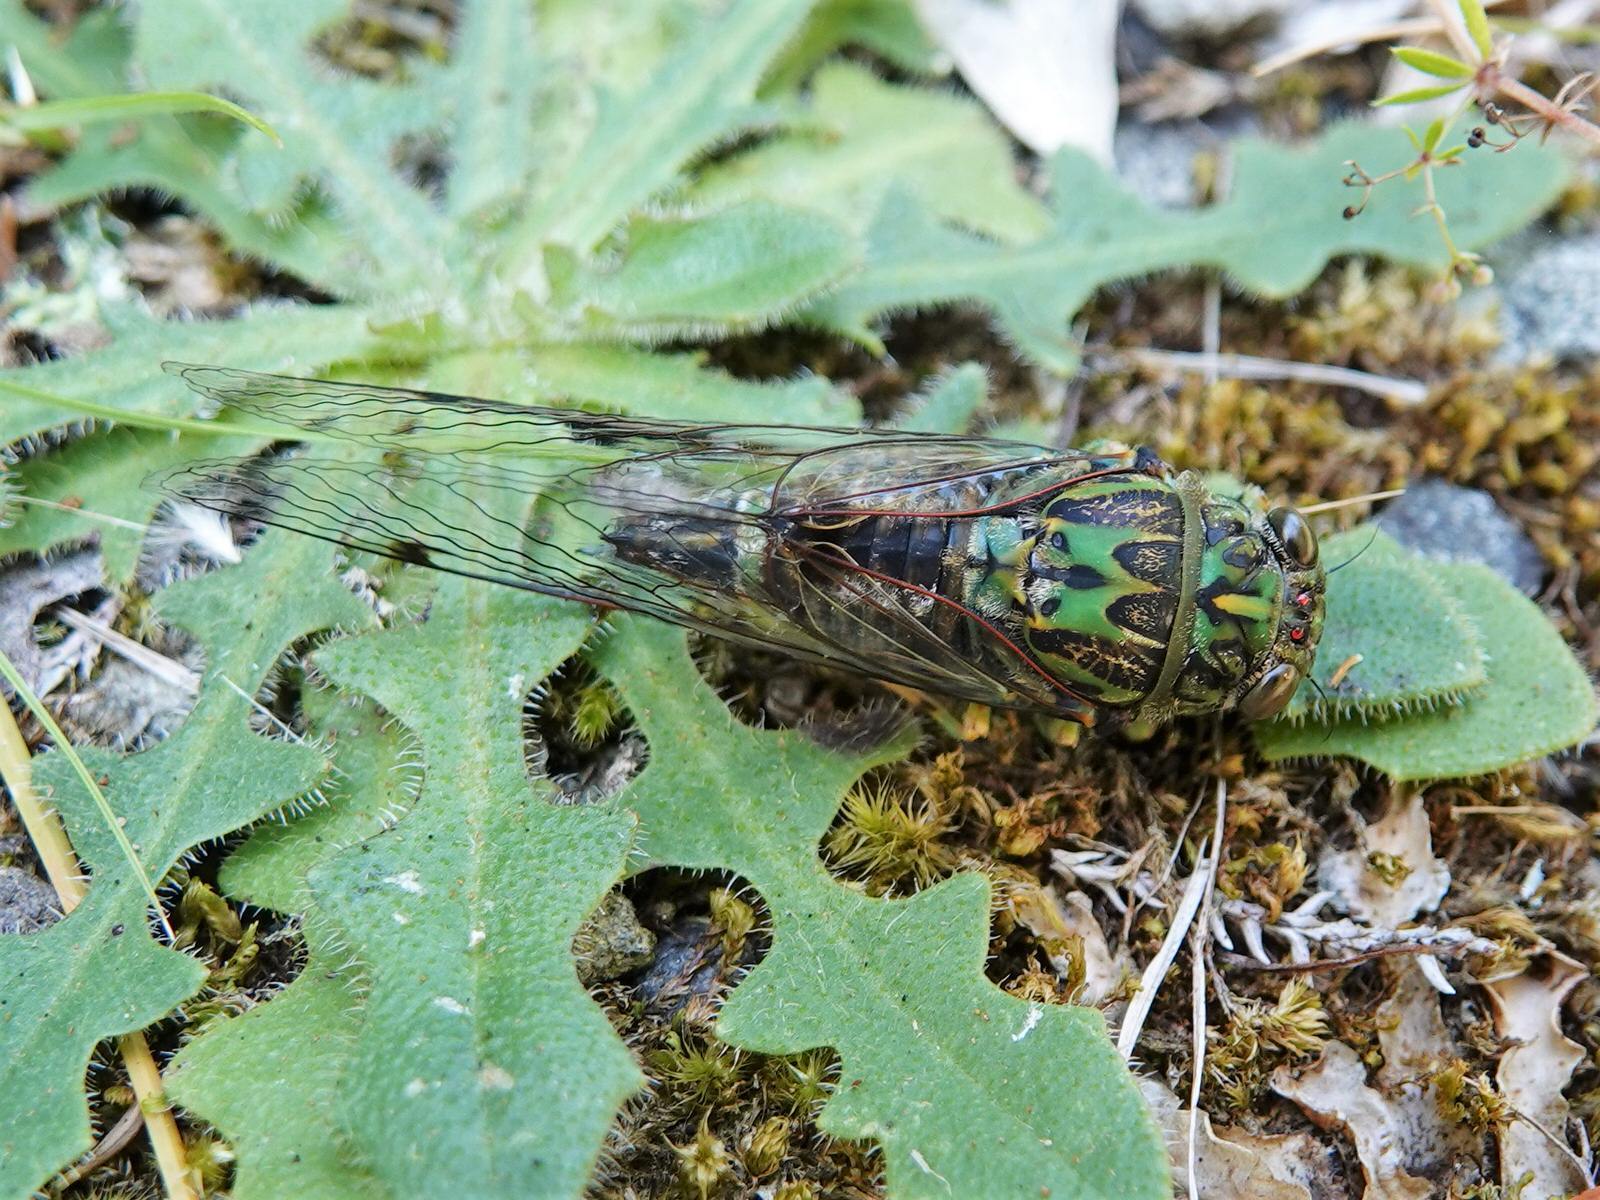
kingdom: Animalia
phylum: Arthropoda
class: Insecta
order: Hemiptera
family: Cicadidae
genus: Amphipsalta
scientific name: Amphipsalta zelandica
